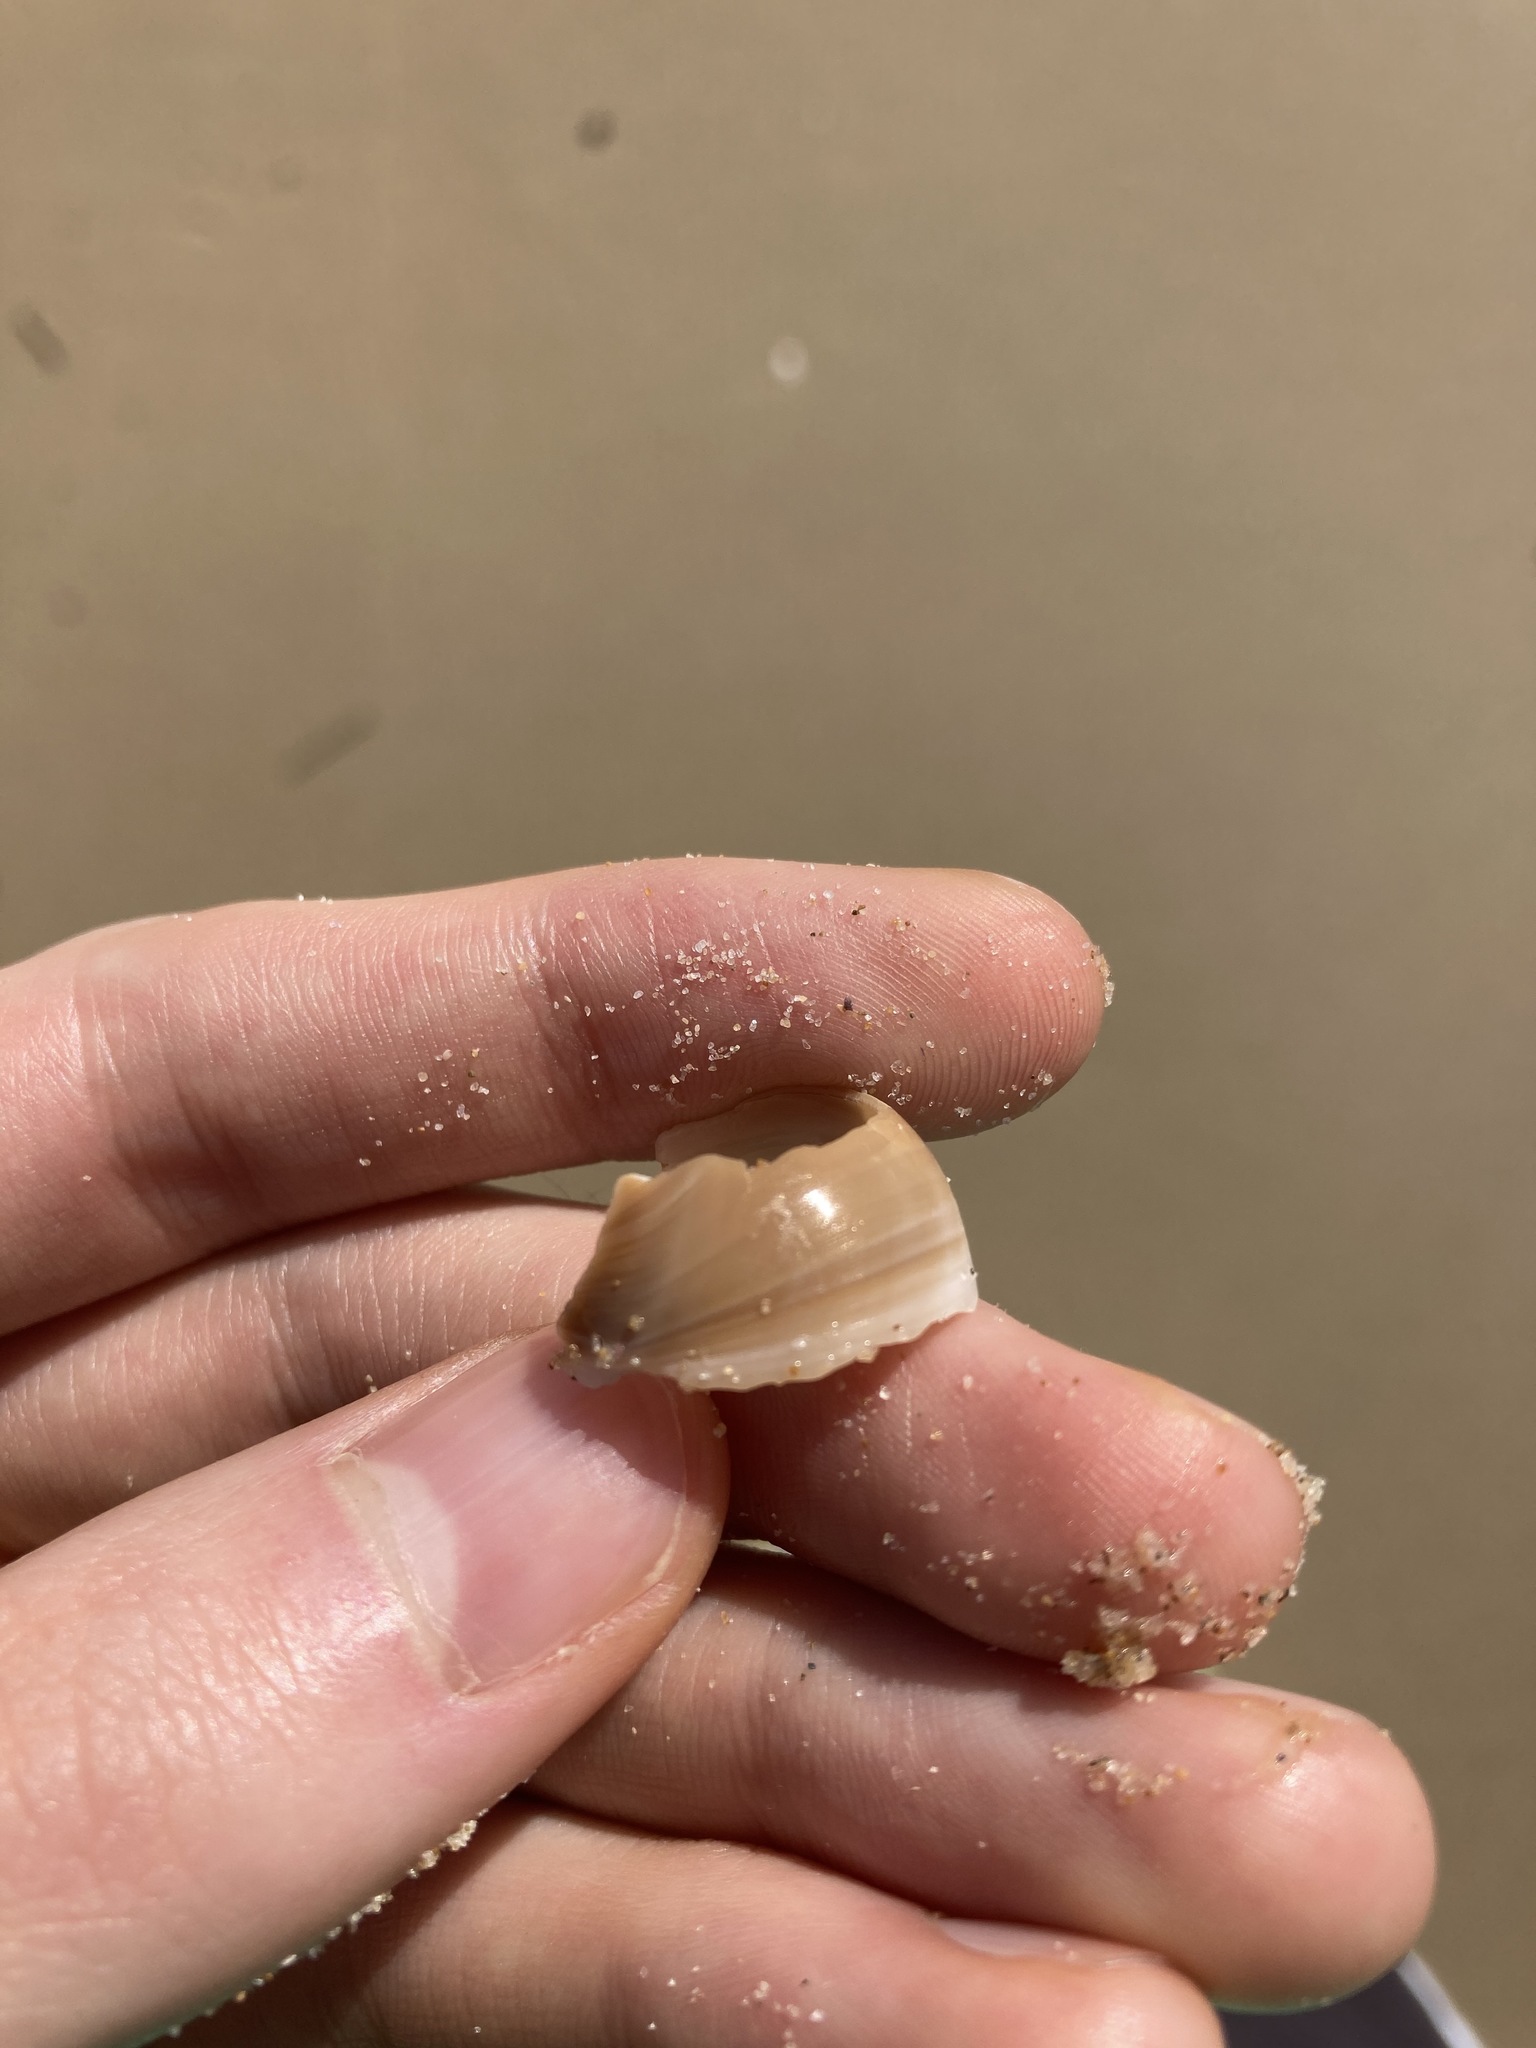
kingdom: Animalia
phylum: Mollusca
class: Gastropoda
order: Littorinimorpha
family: Naticidae
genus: Neverita
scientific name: Neverita didyma
